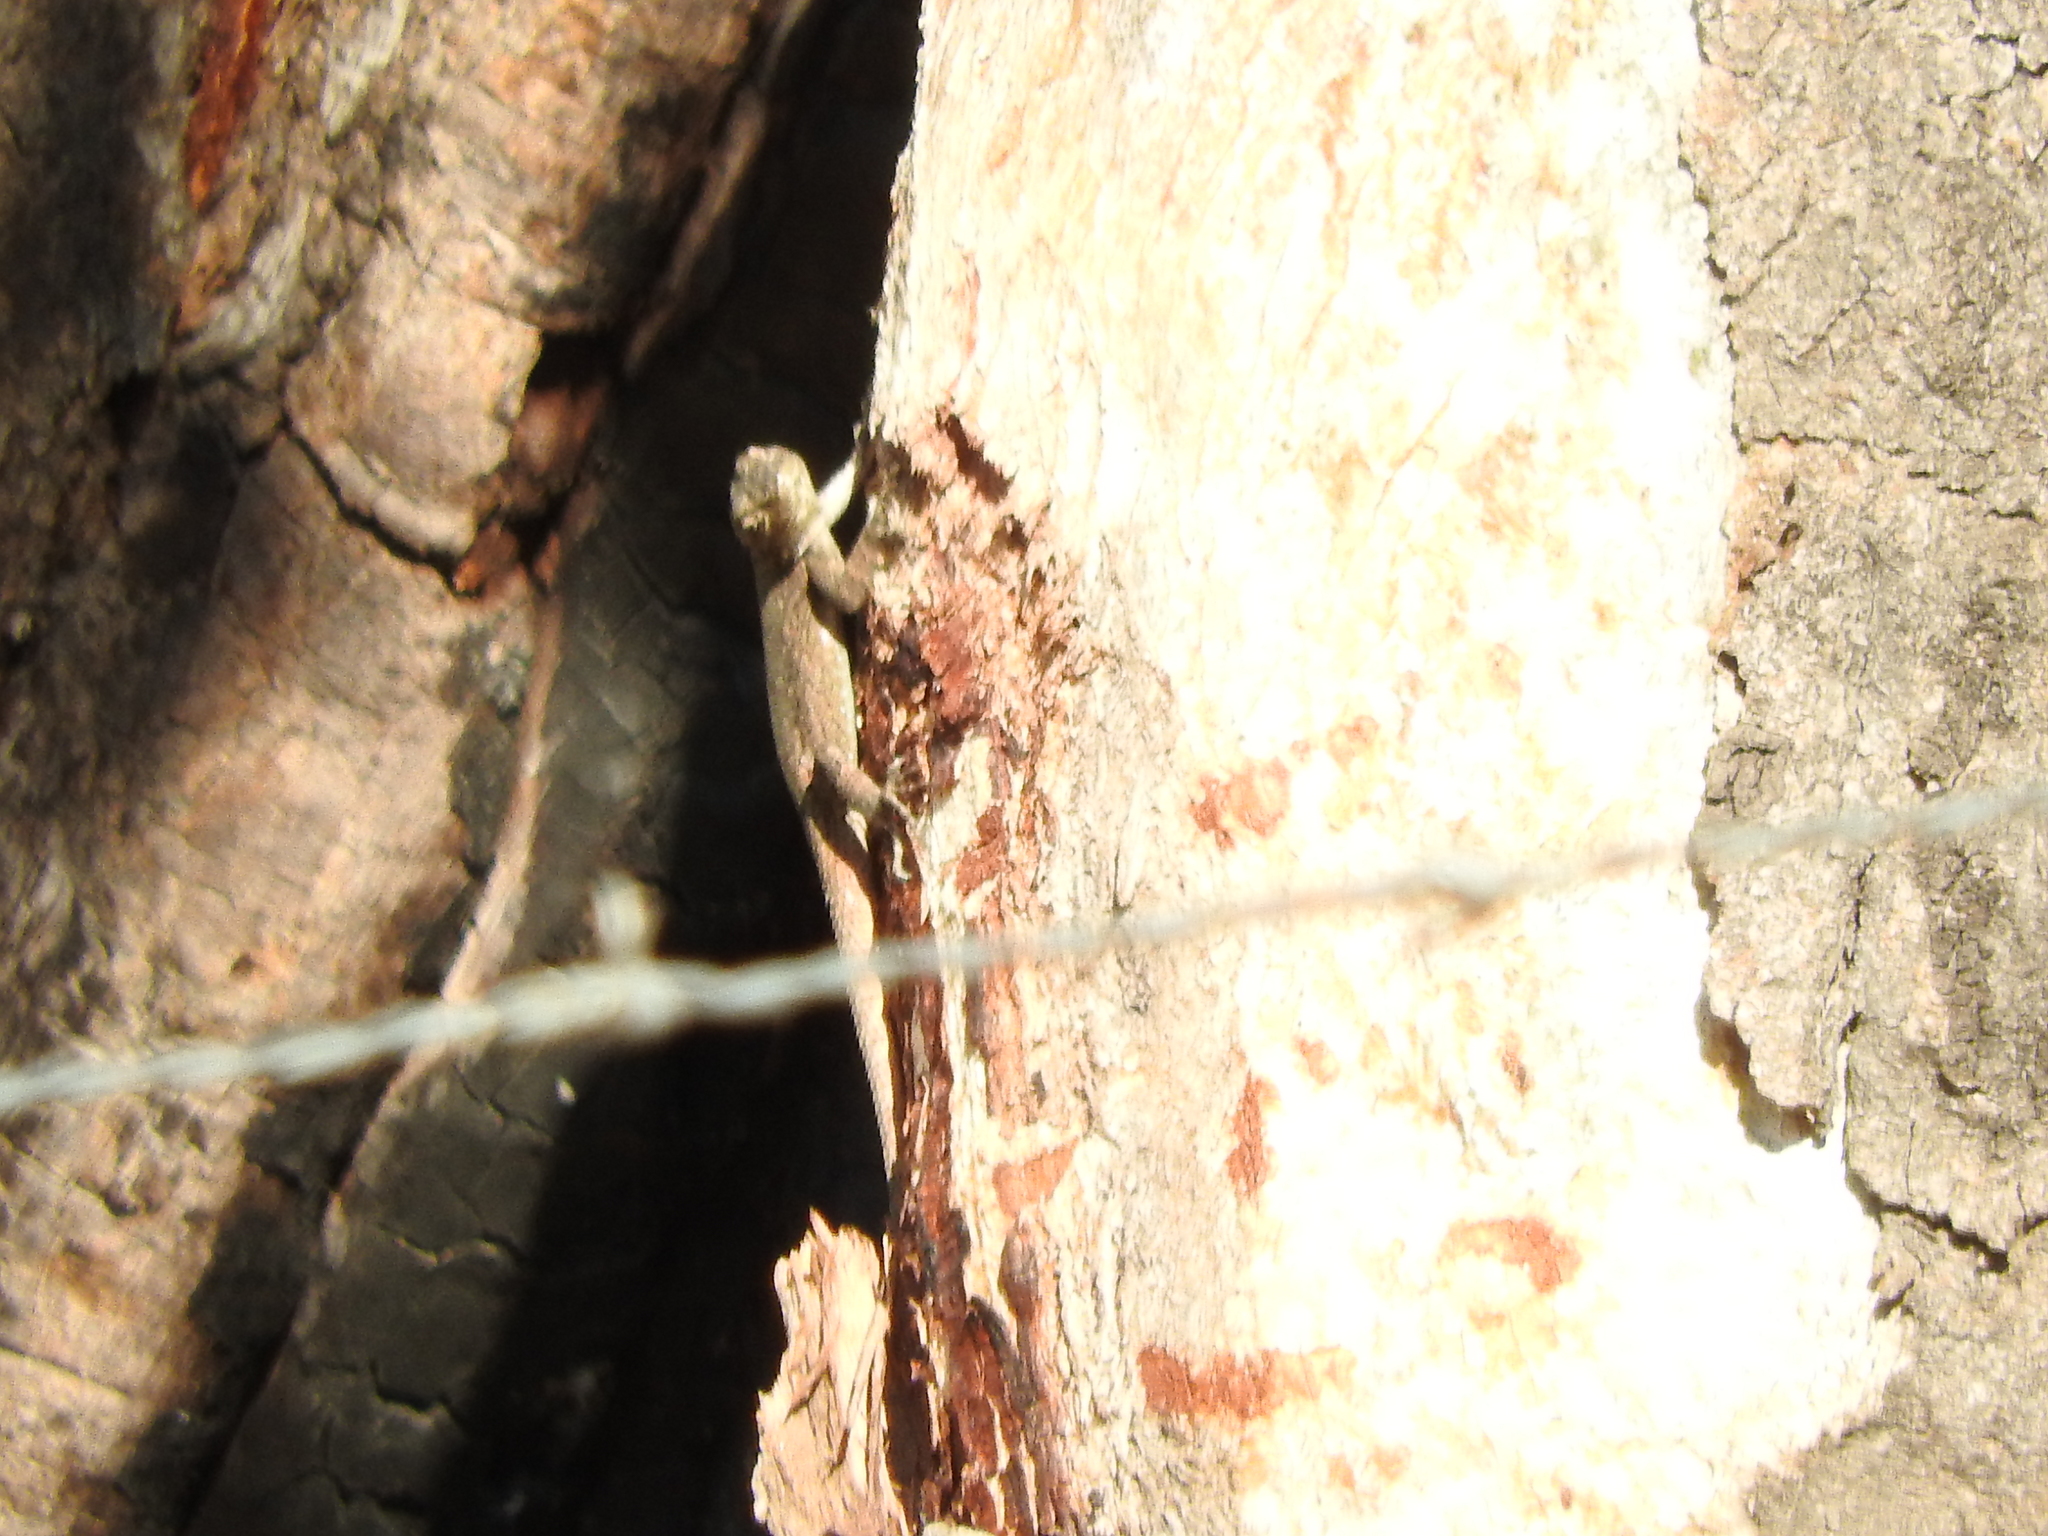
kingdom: Animalia
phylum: Chordata
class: Squamata
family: Phrynosomatidae
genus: Sceloporus
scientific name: Sceloporus grammicus
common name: Mesquite lizard
